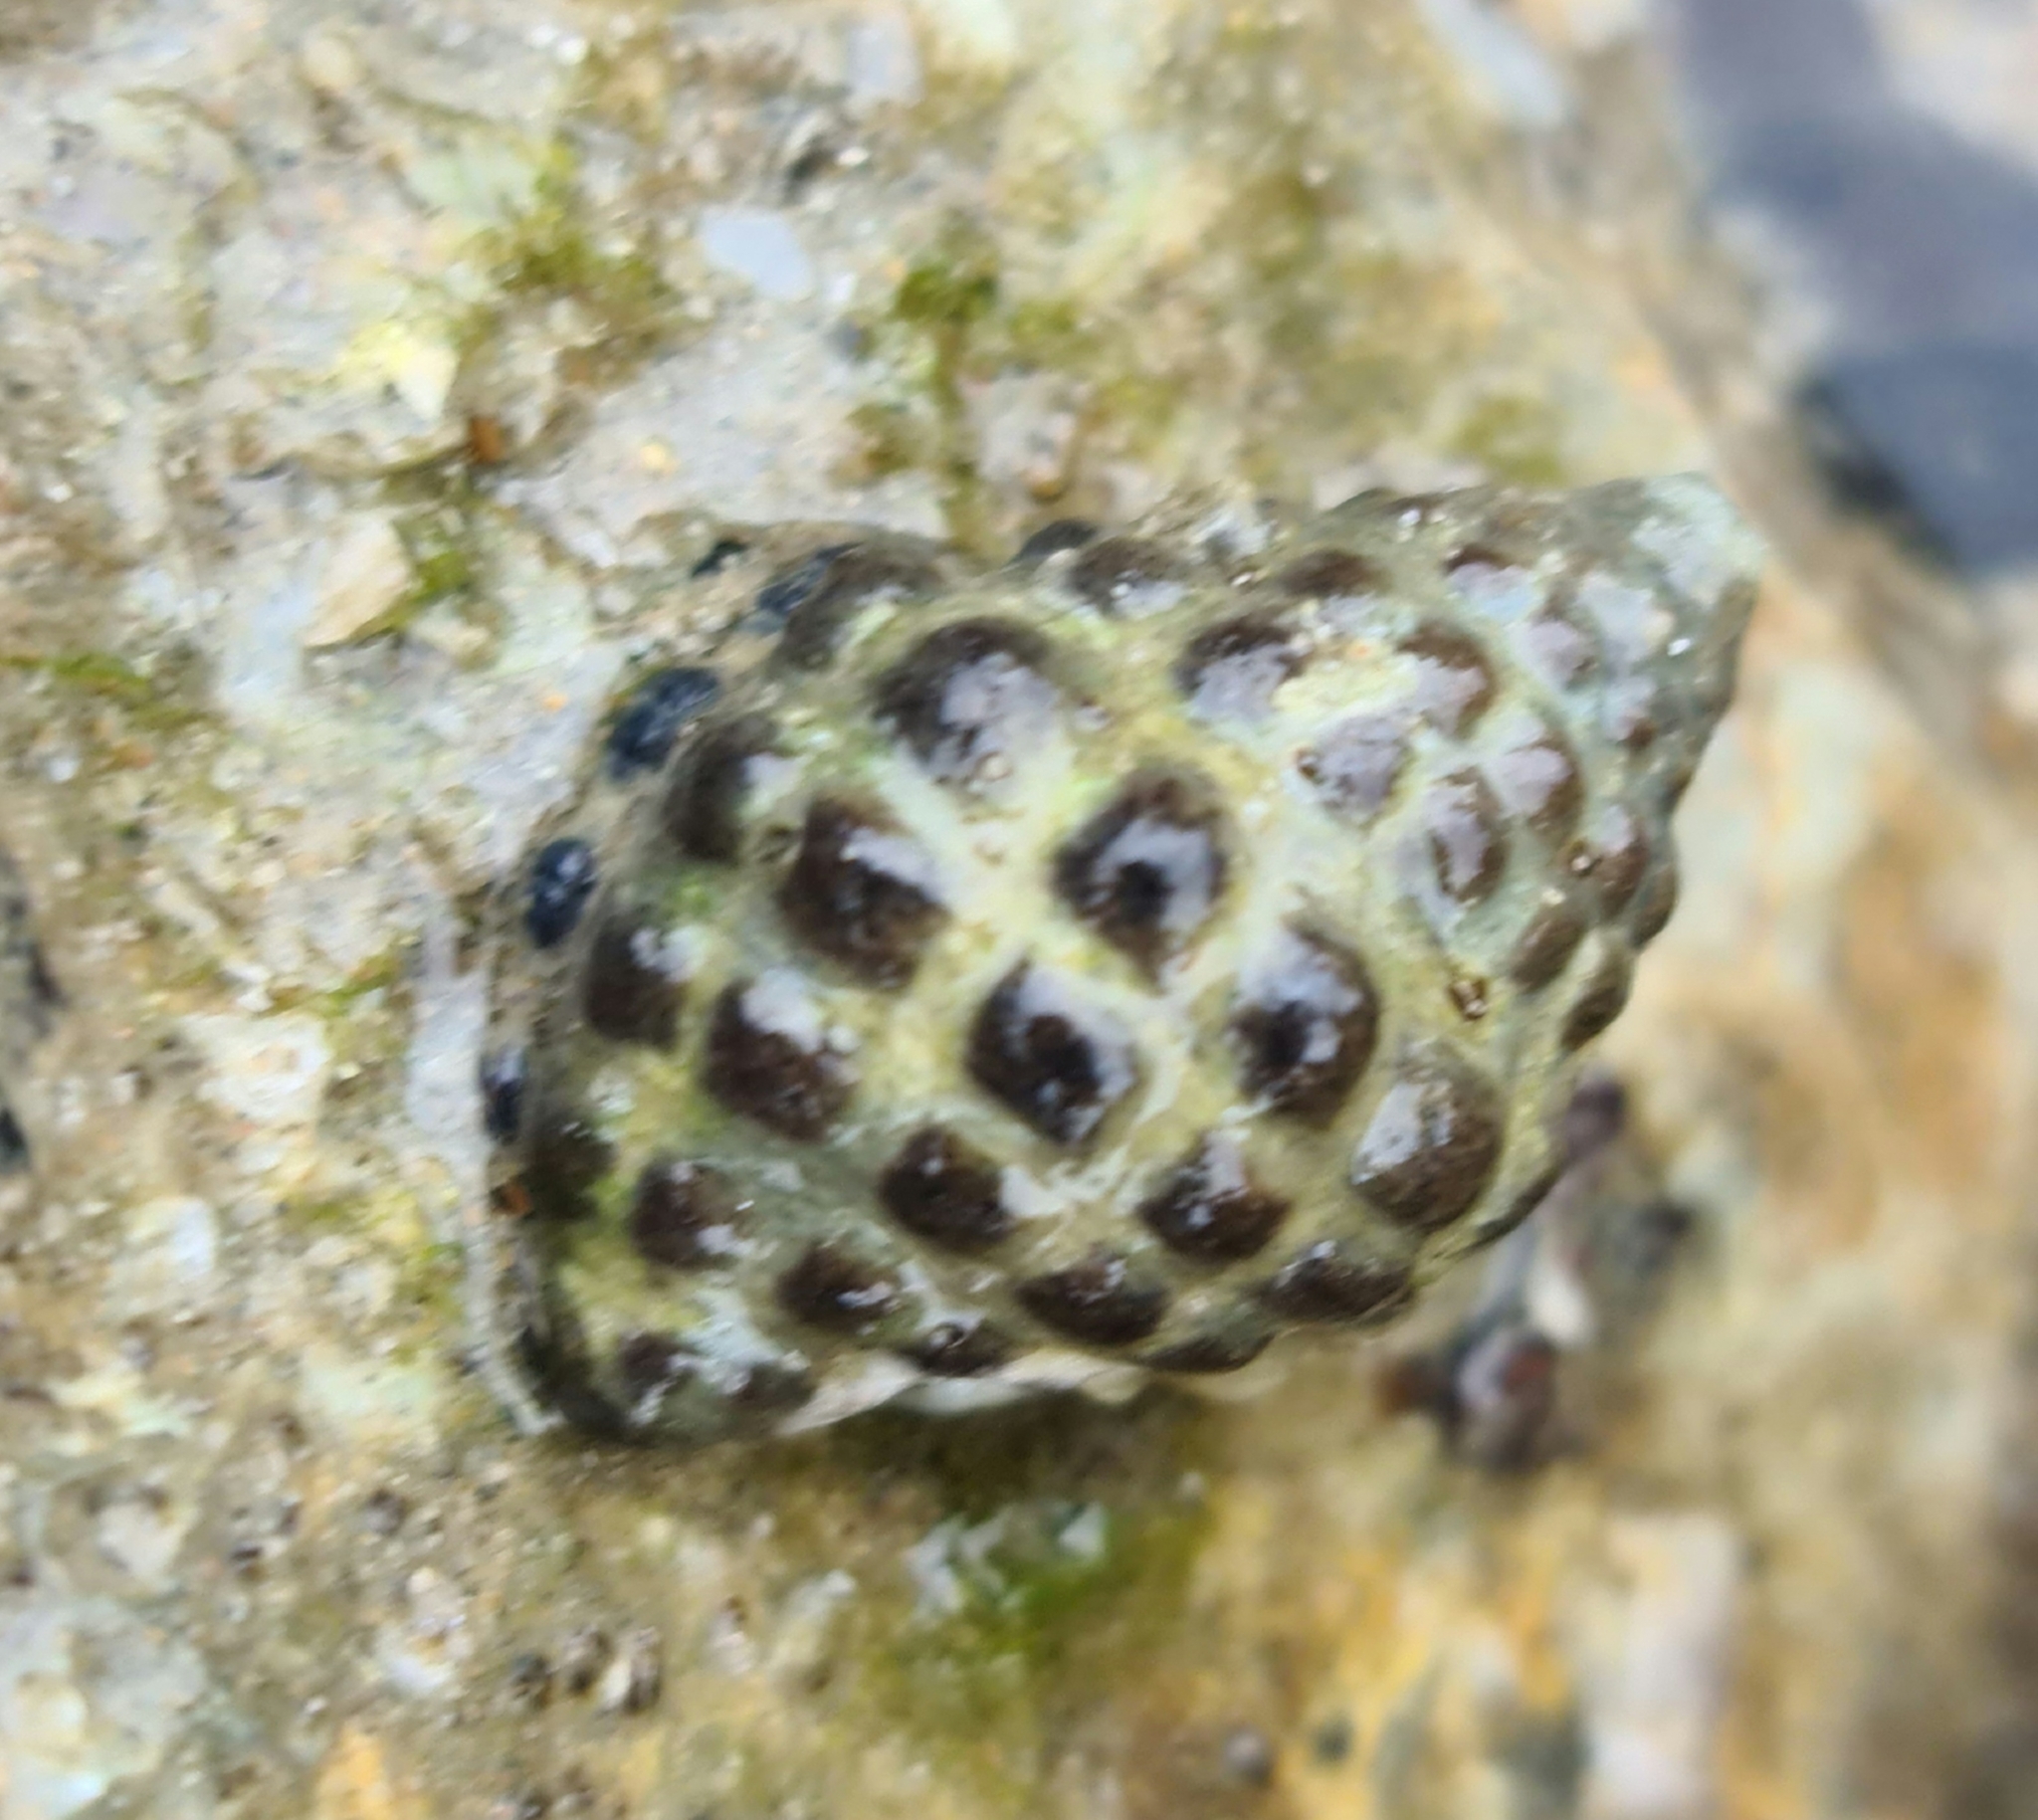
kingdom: Animalia
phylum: Mollusca
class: Gastropoda
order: Neogastropoda
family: Muricidae
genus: Tenguella
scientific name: Tenguella marginalba
